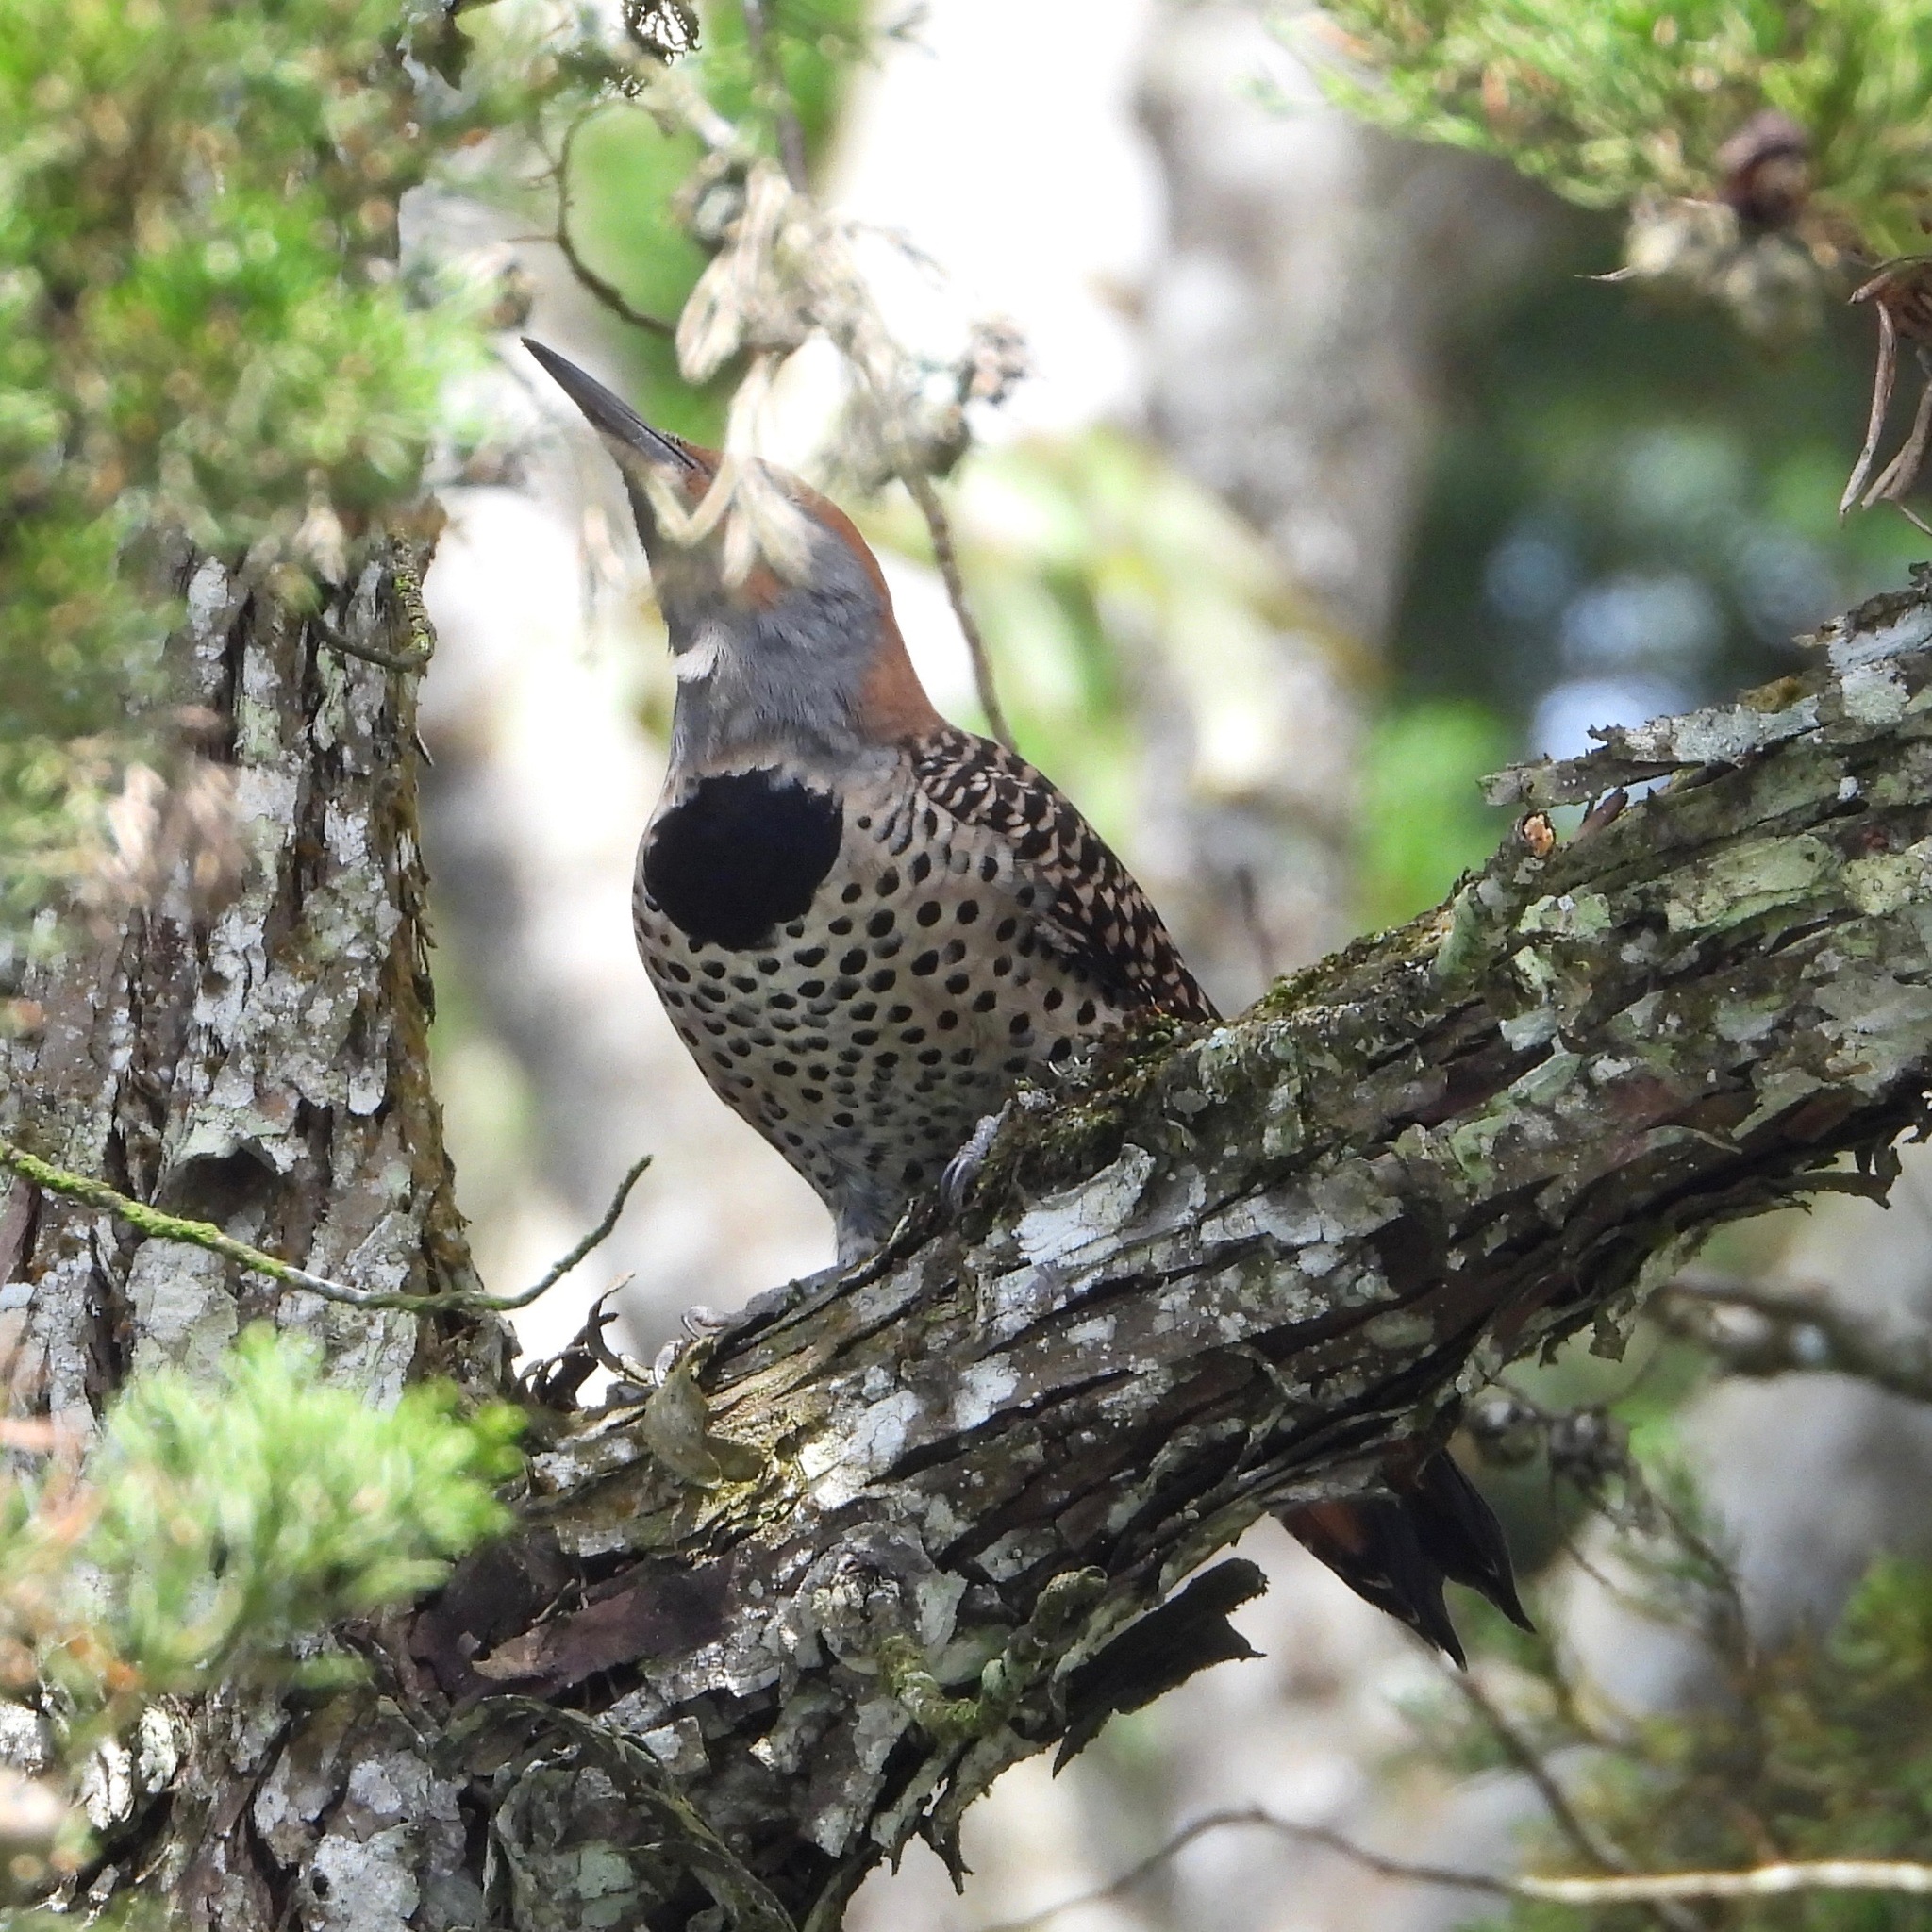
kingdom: Animalia
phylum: Chordata
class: Aves
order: Piciformes
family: Picidae
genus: Colaptes
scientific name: Colaptes auratus
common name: Northern flicker
